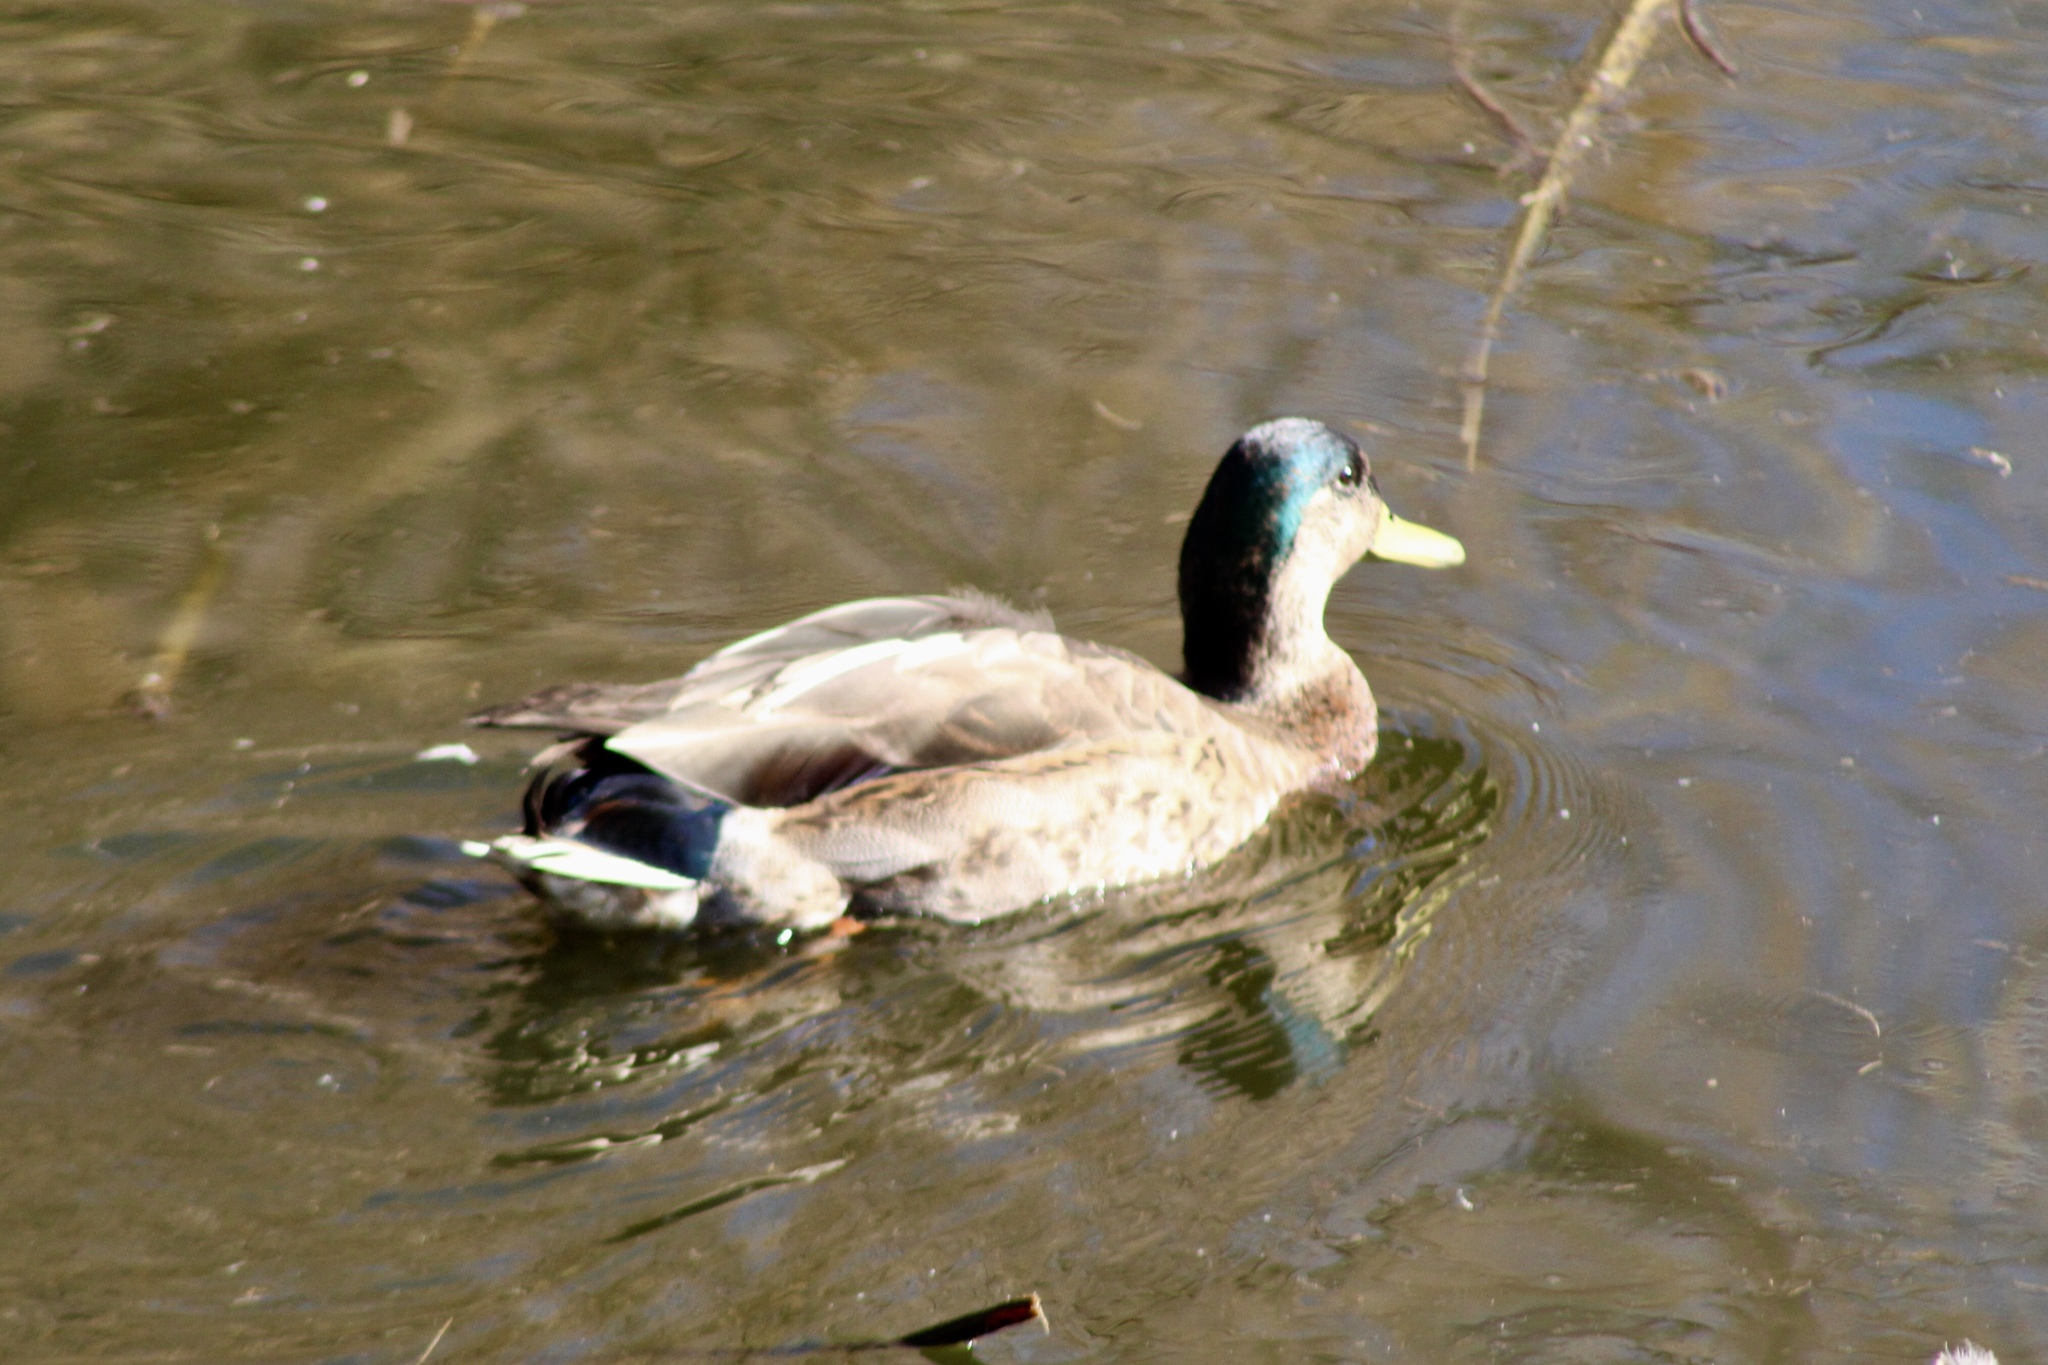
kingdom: Animalia
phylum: Chordata
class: Aves
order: Anseriformes
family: Anatidae
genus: Anas
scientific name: Anas
